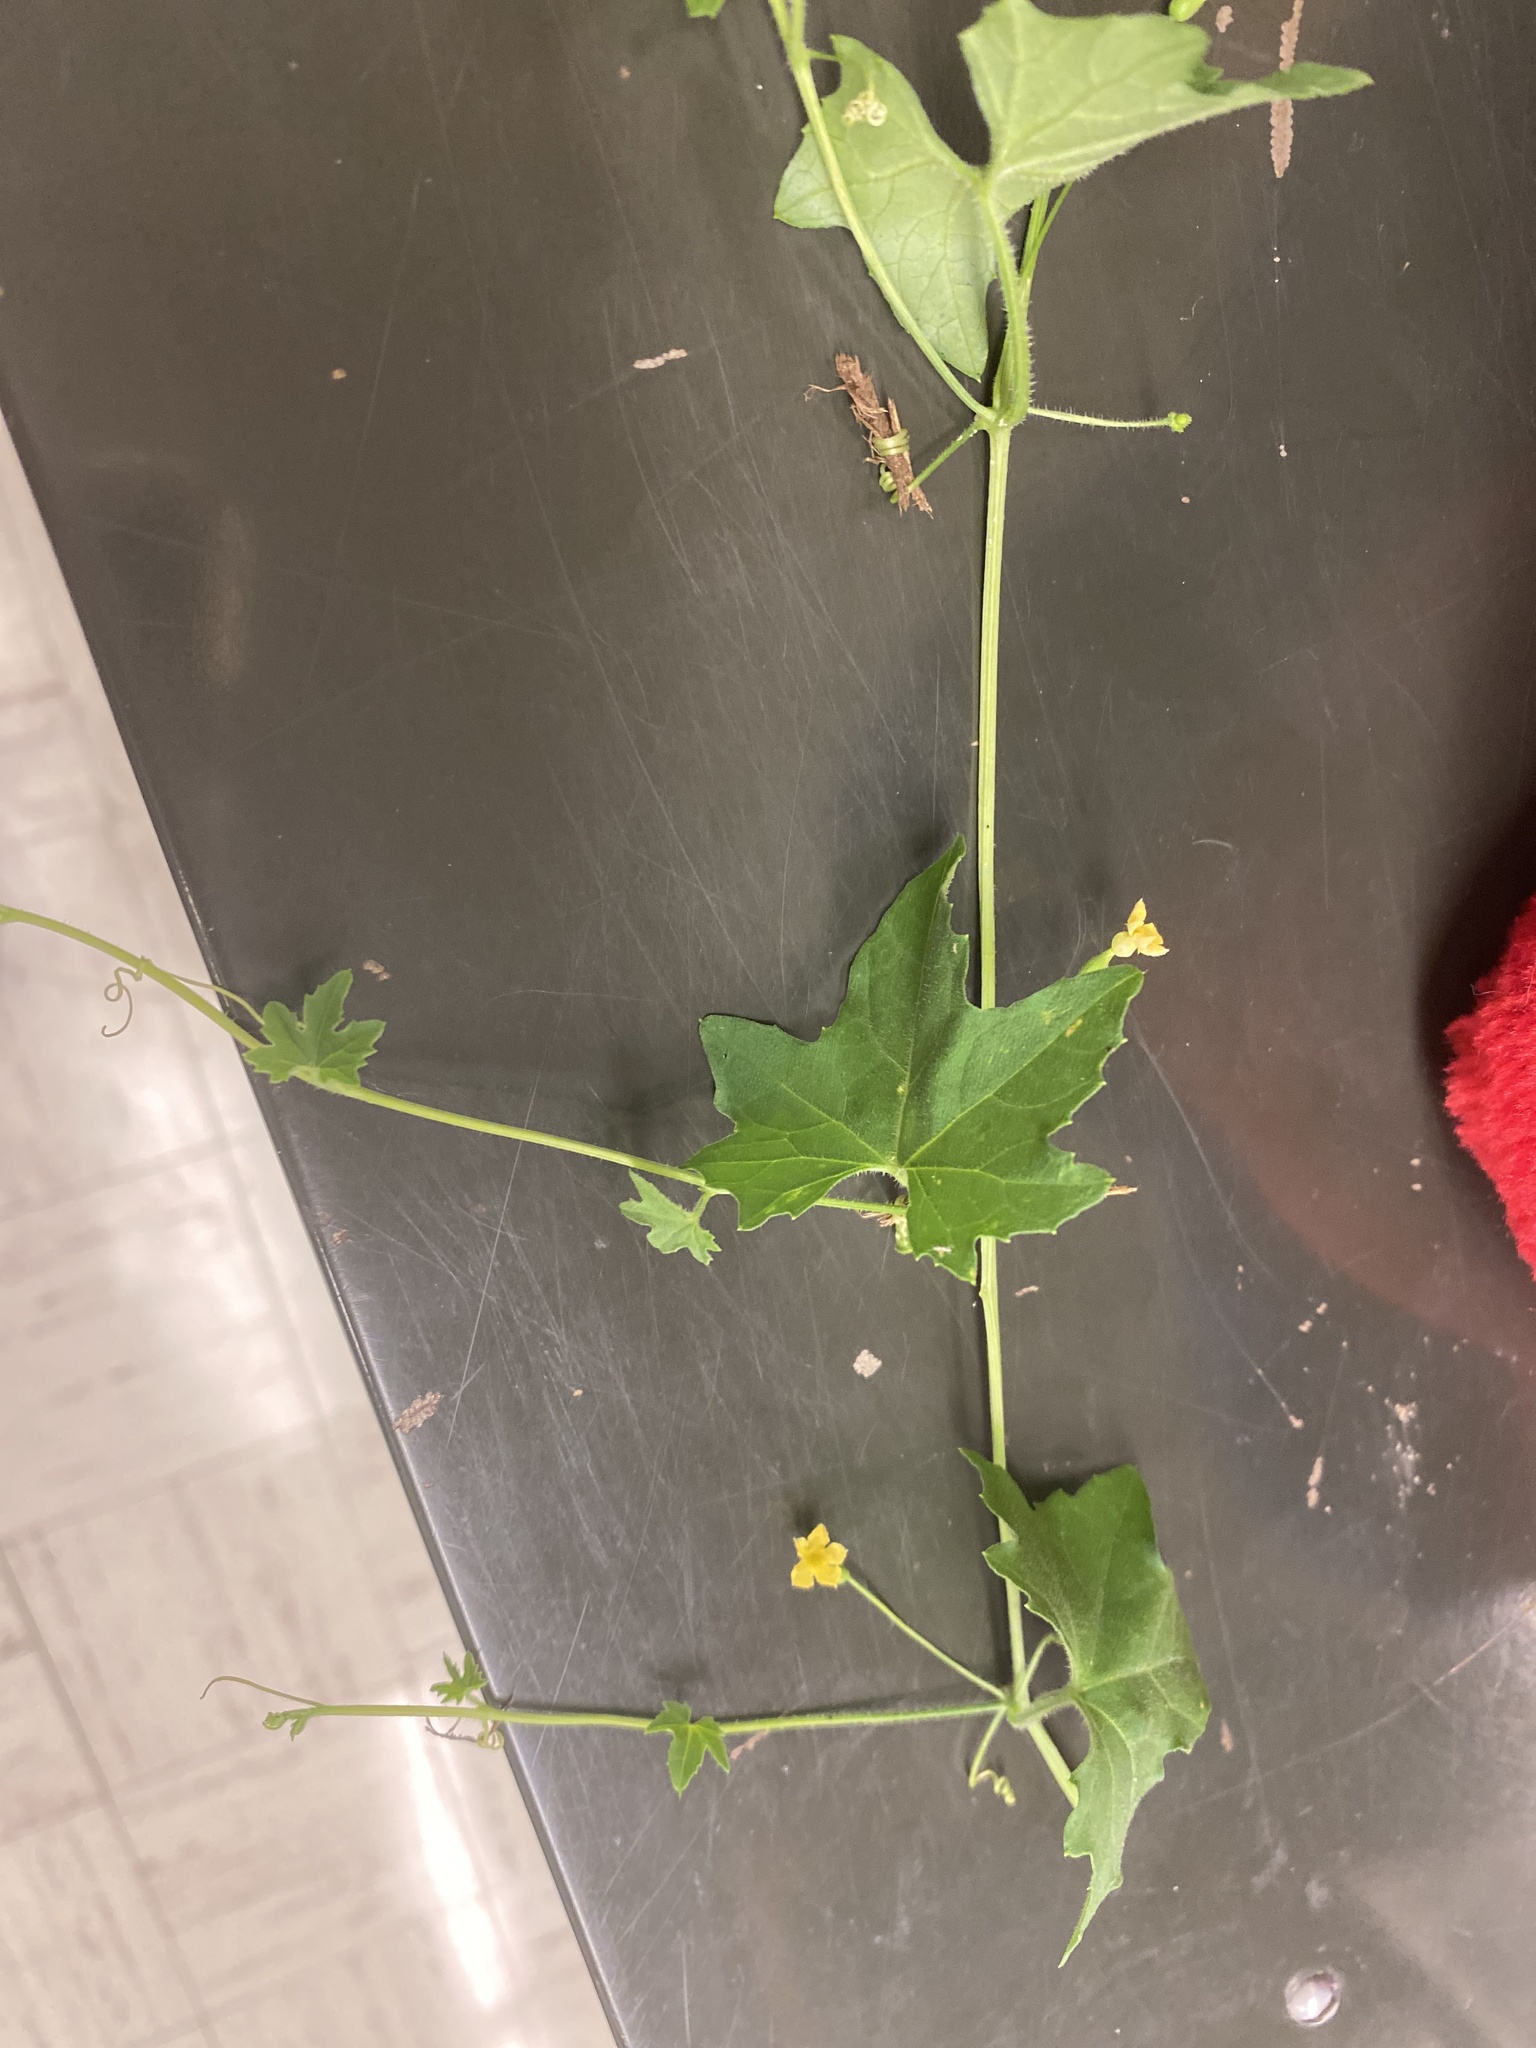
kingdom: Plantae
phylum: Tracheophyta
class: Magnoliopsida
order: Cucurbitales
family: Cucurbitaceae
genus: Melothria
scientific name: Melothria pendula
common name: Creeping-cucumber
